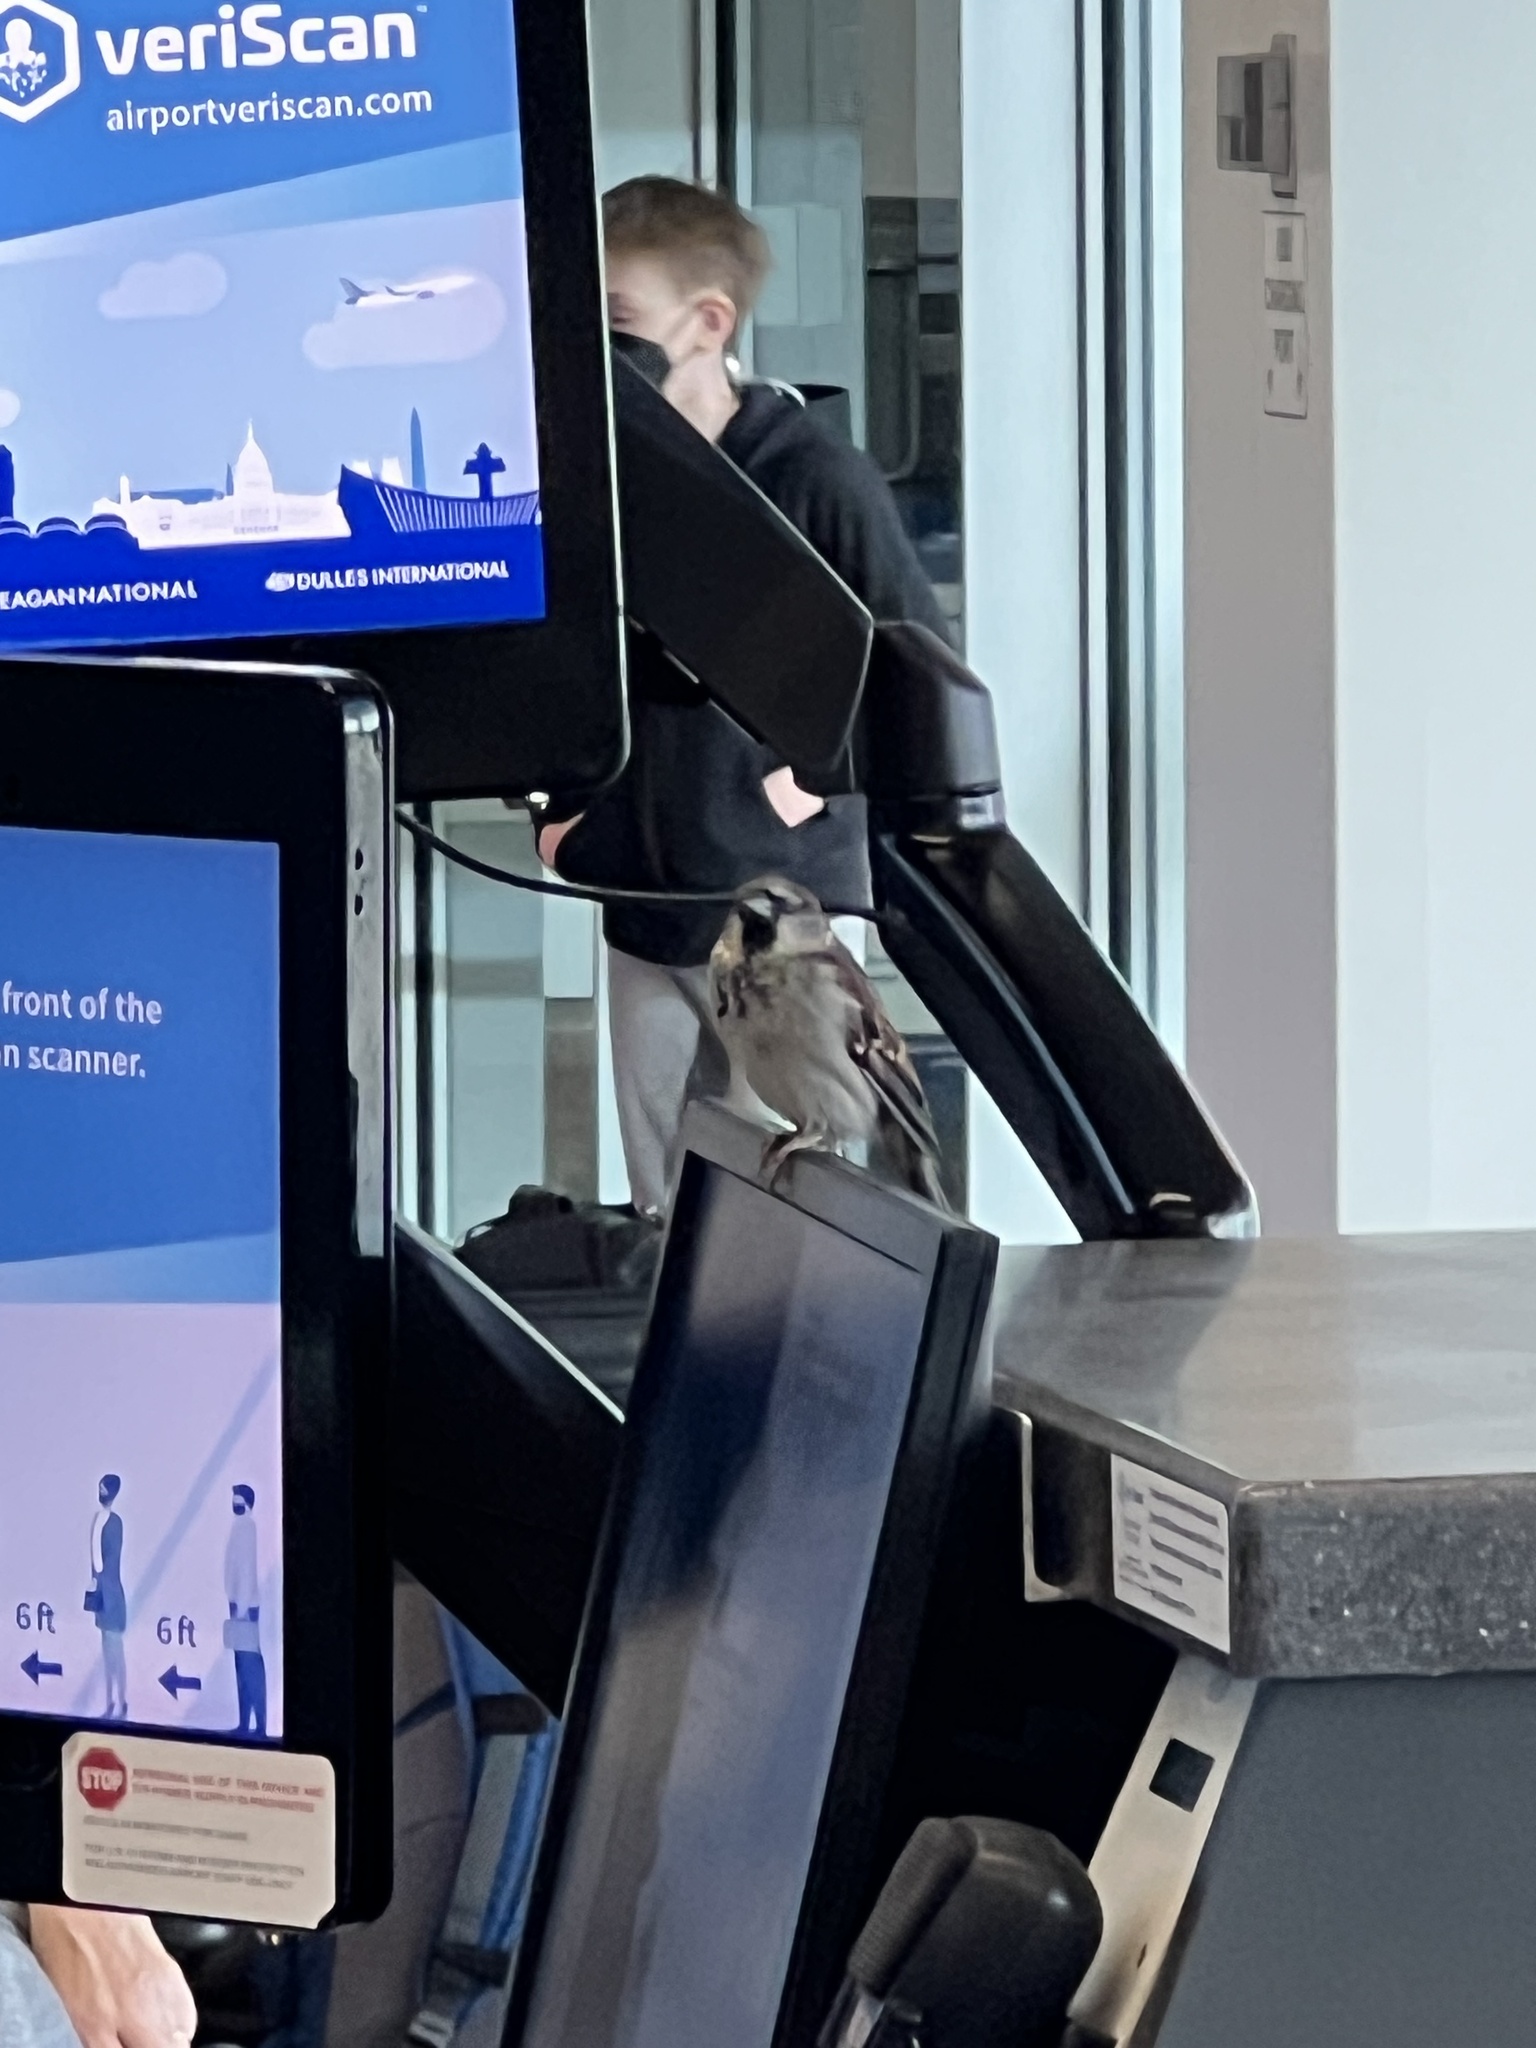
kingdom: Animalia
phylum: Chordata
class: Aves
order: Passeriformes
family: Passeridae
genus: Passer
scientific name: Passer domesticus
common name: House sparrow
